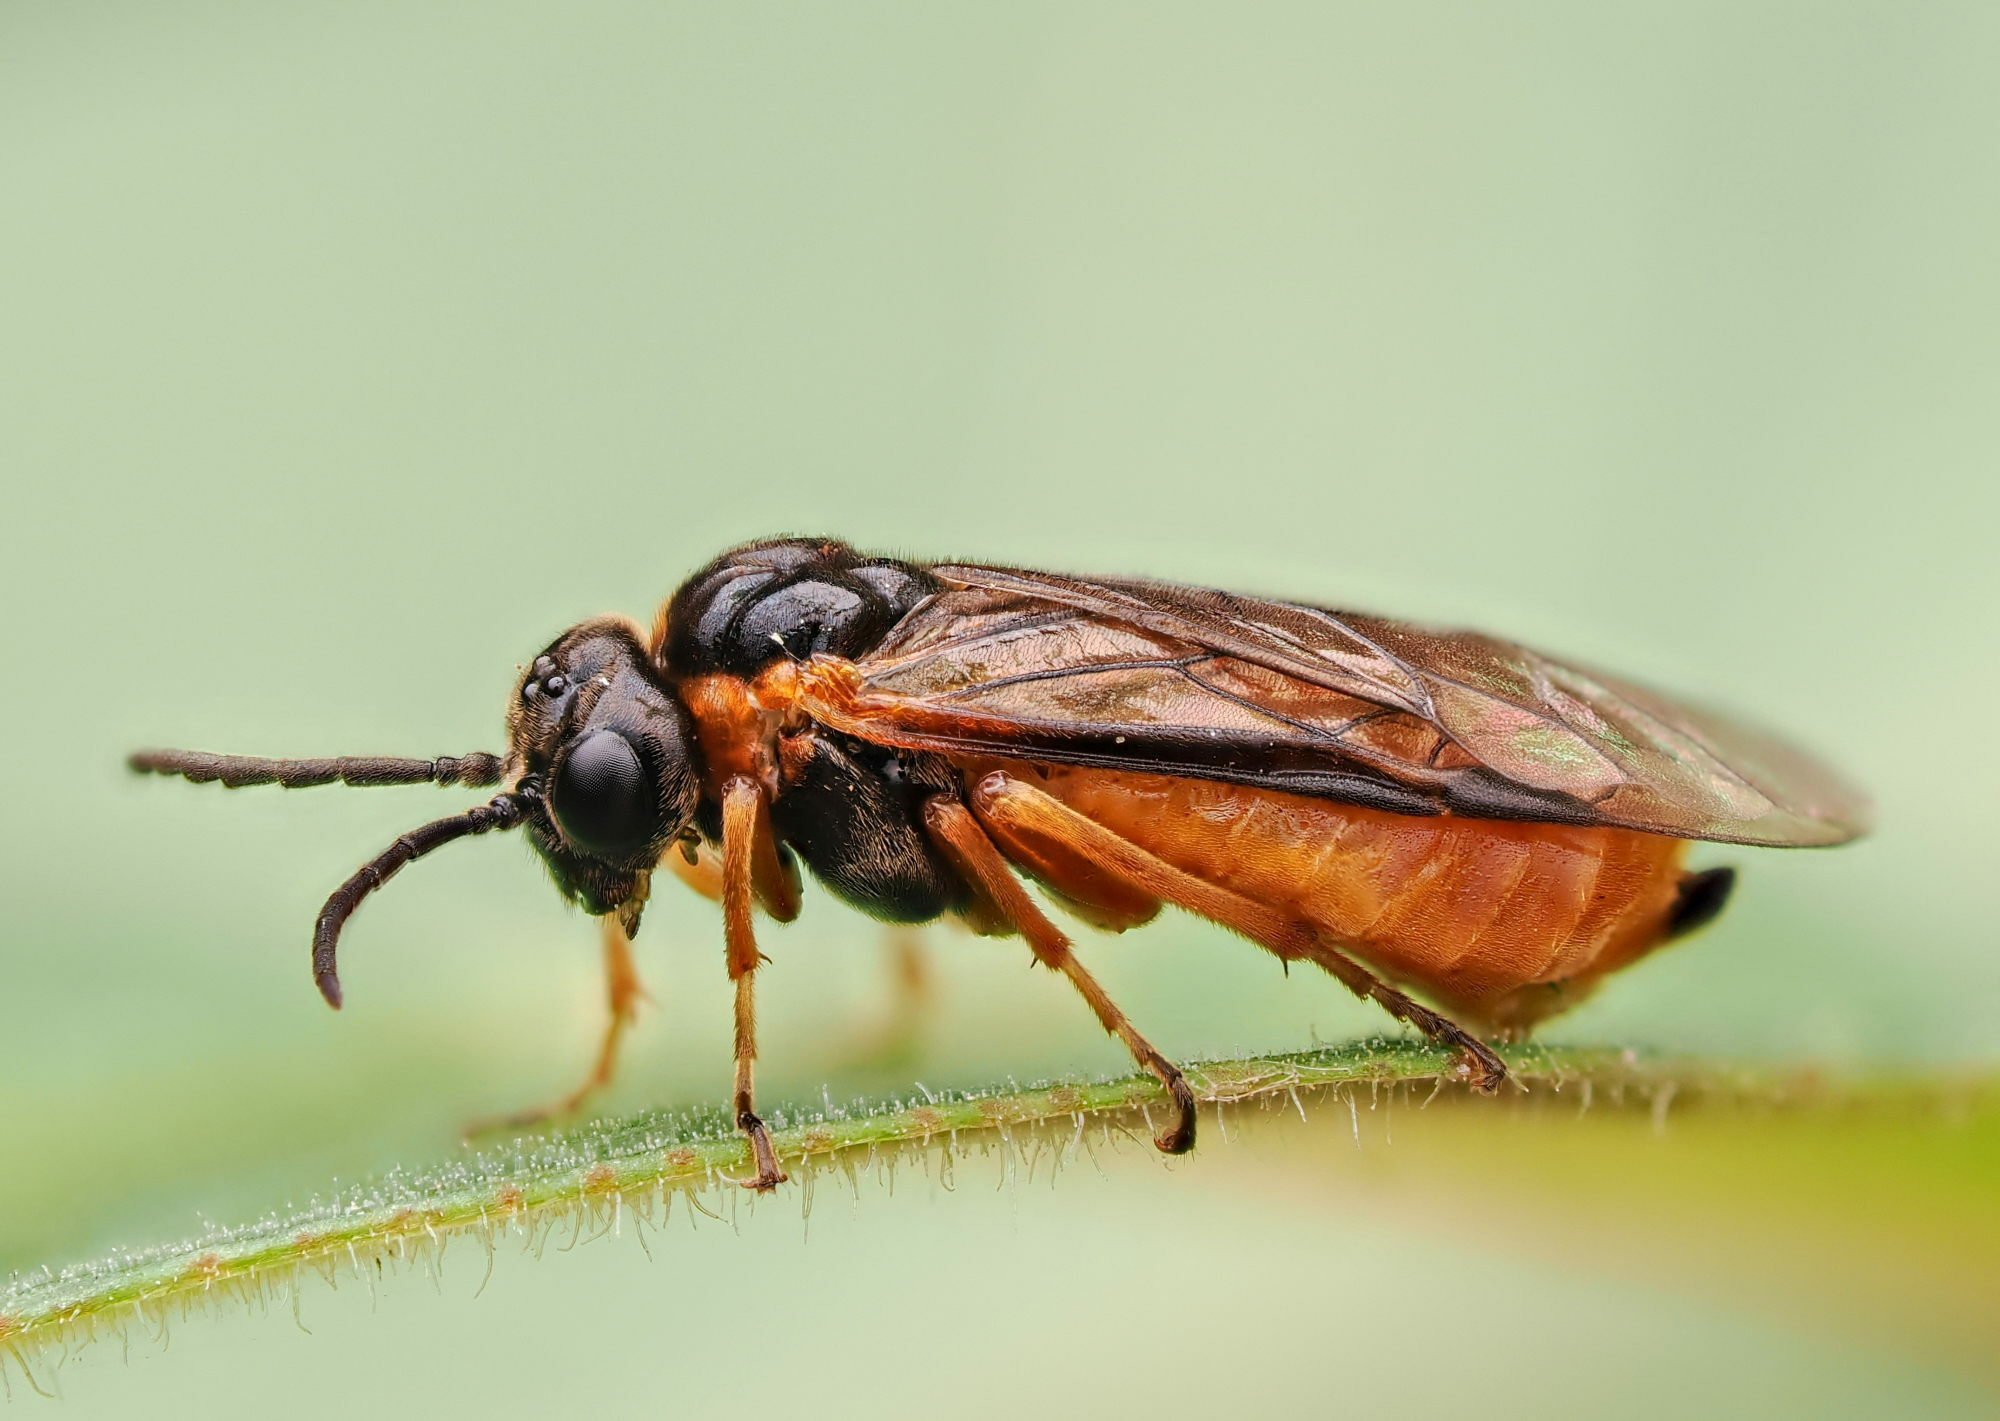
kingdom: Animalia
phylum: Arthropoda
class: Insecta
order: Hymenoptera
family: Tenthredinidae
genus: Monostegia
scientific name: Monostegia abdominalis
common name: Tenthredid wasp
